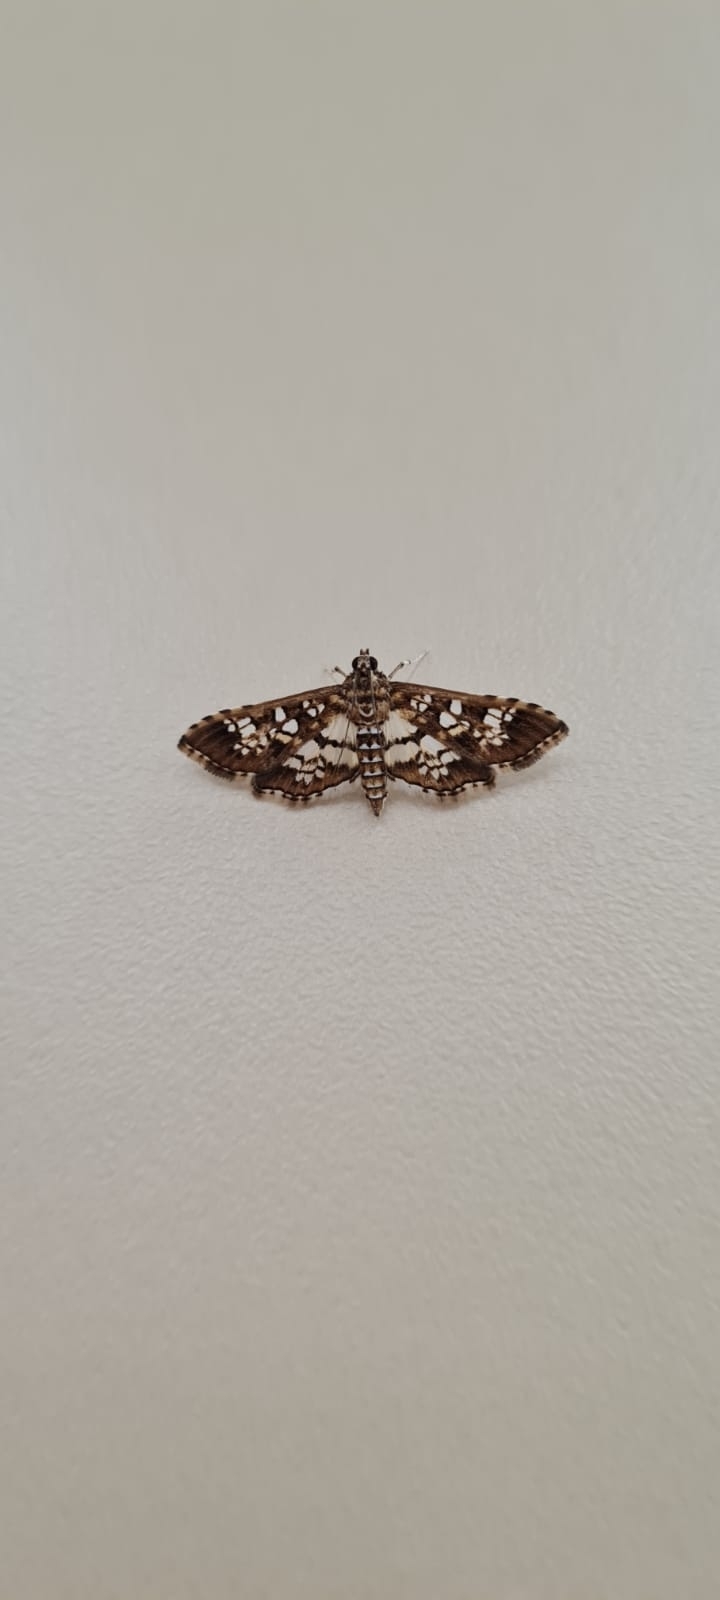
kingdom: Animalia
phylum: Arthropoda
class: Insecta
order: Lepidoptera
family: Crambidae
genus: Samea
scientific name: Samea ecclesialis
